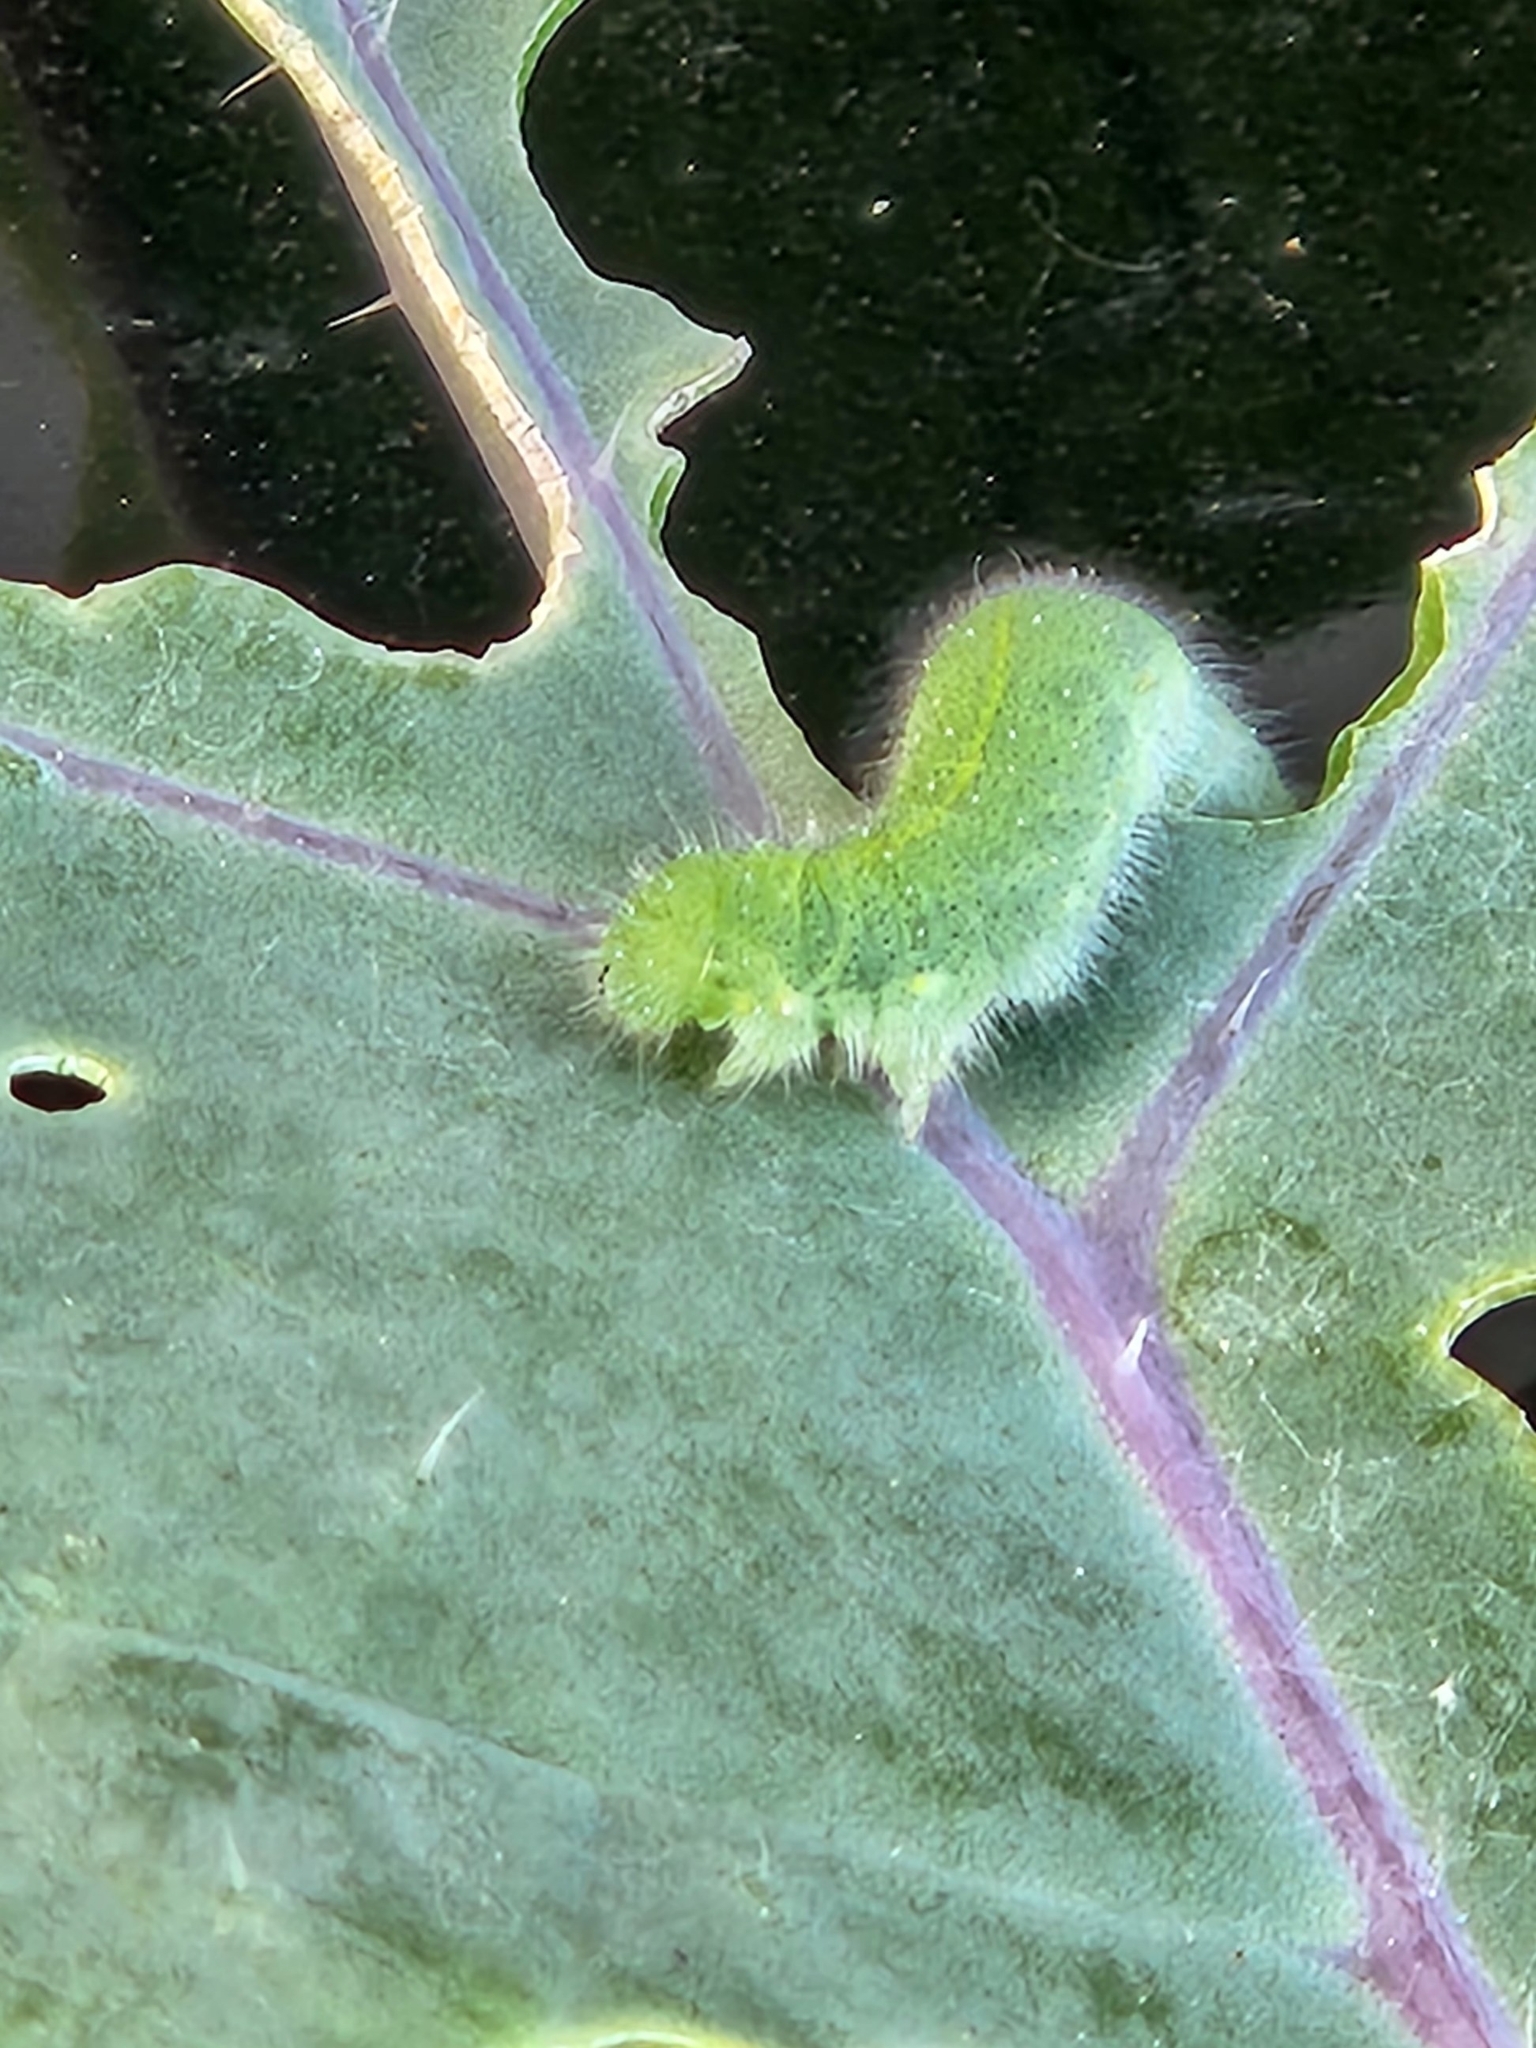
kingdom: Animalia
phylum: Arthropoda
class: Insecta
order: Lepidoptera
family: Pieridae
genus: Pieris
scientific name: Pieris rapae
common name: Small white
